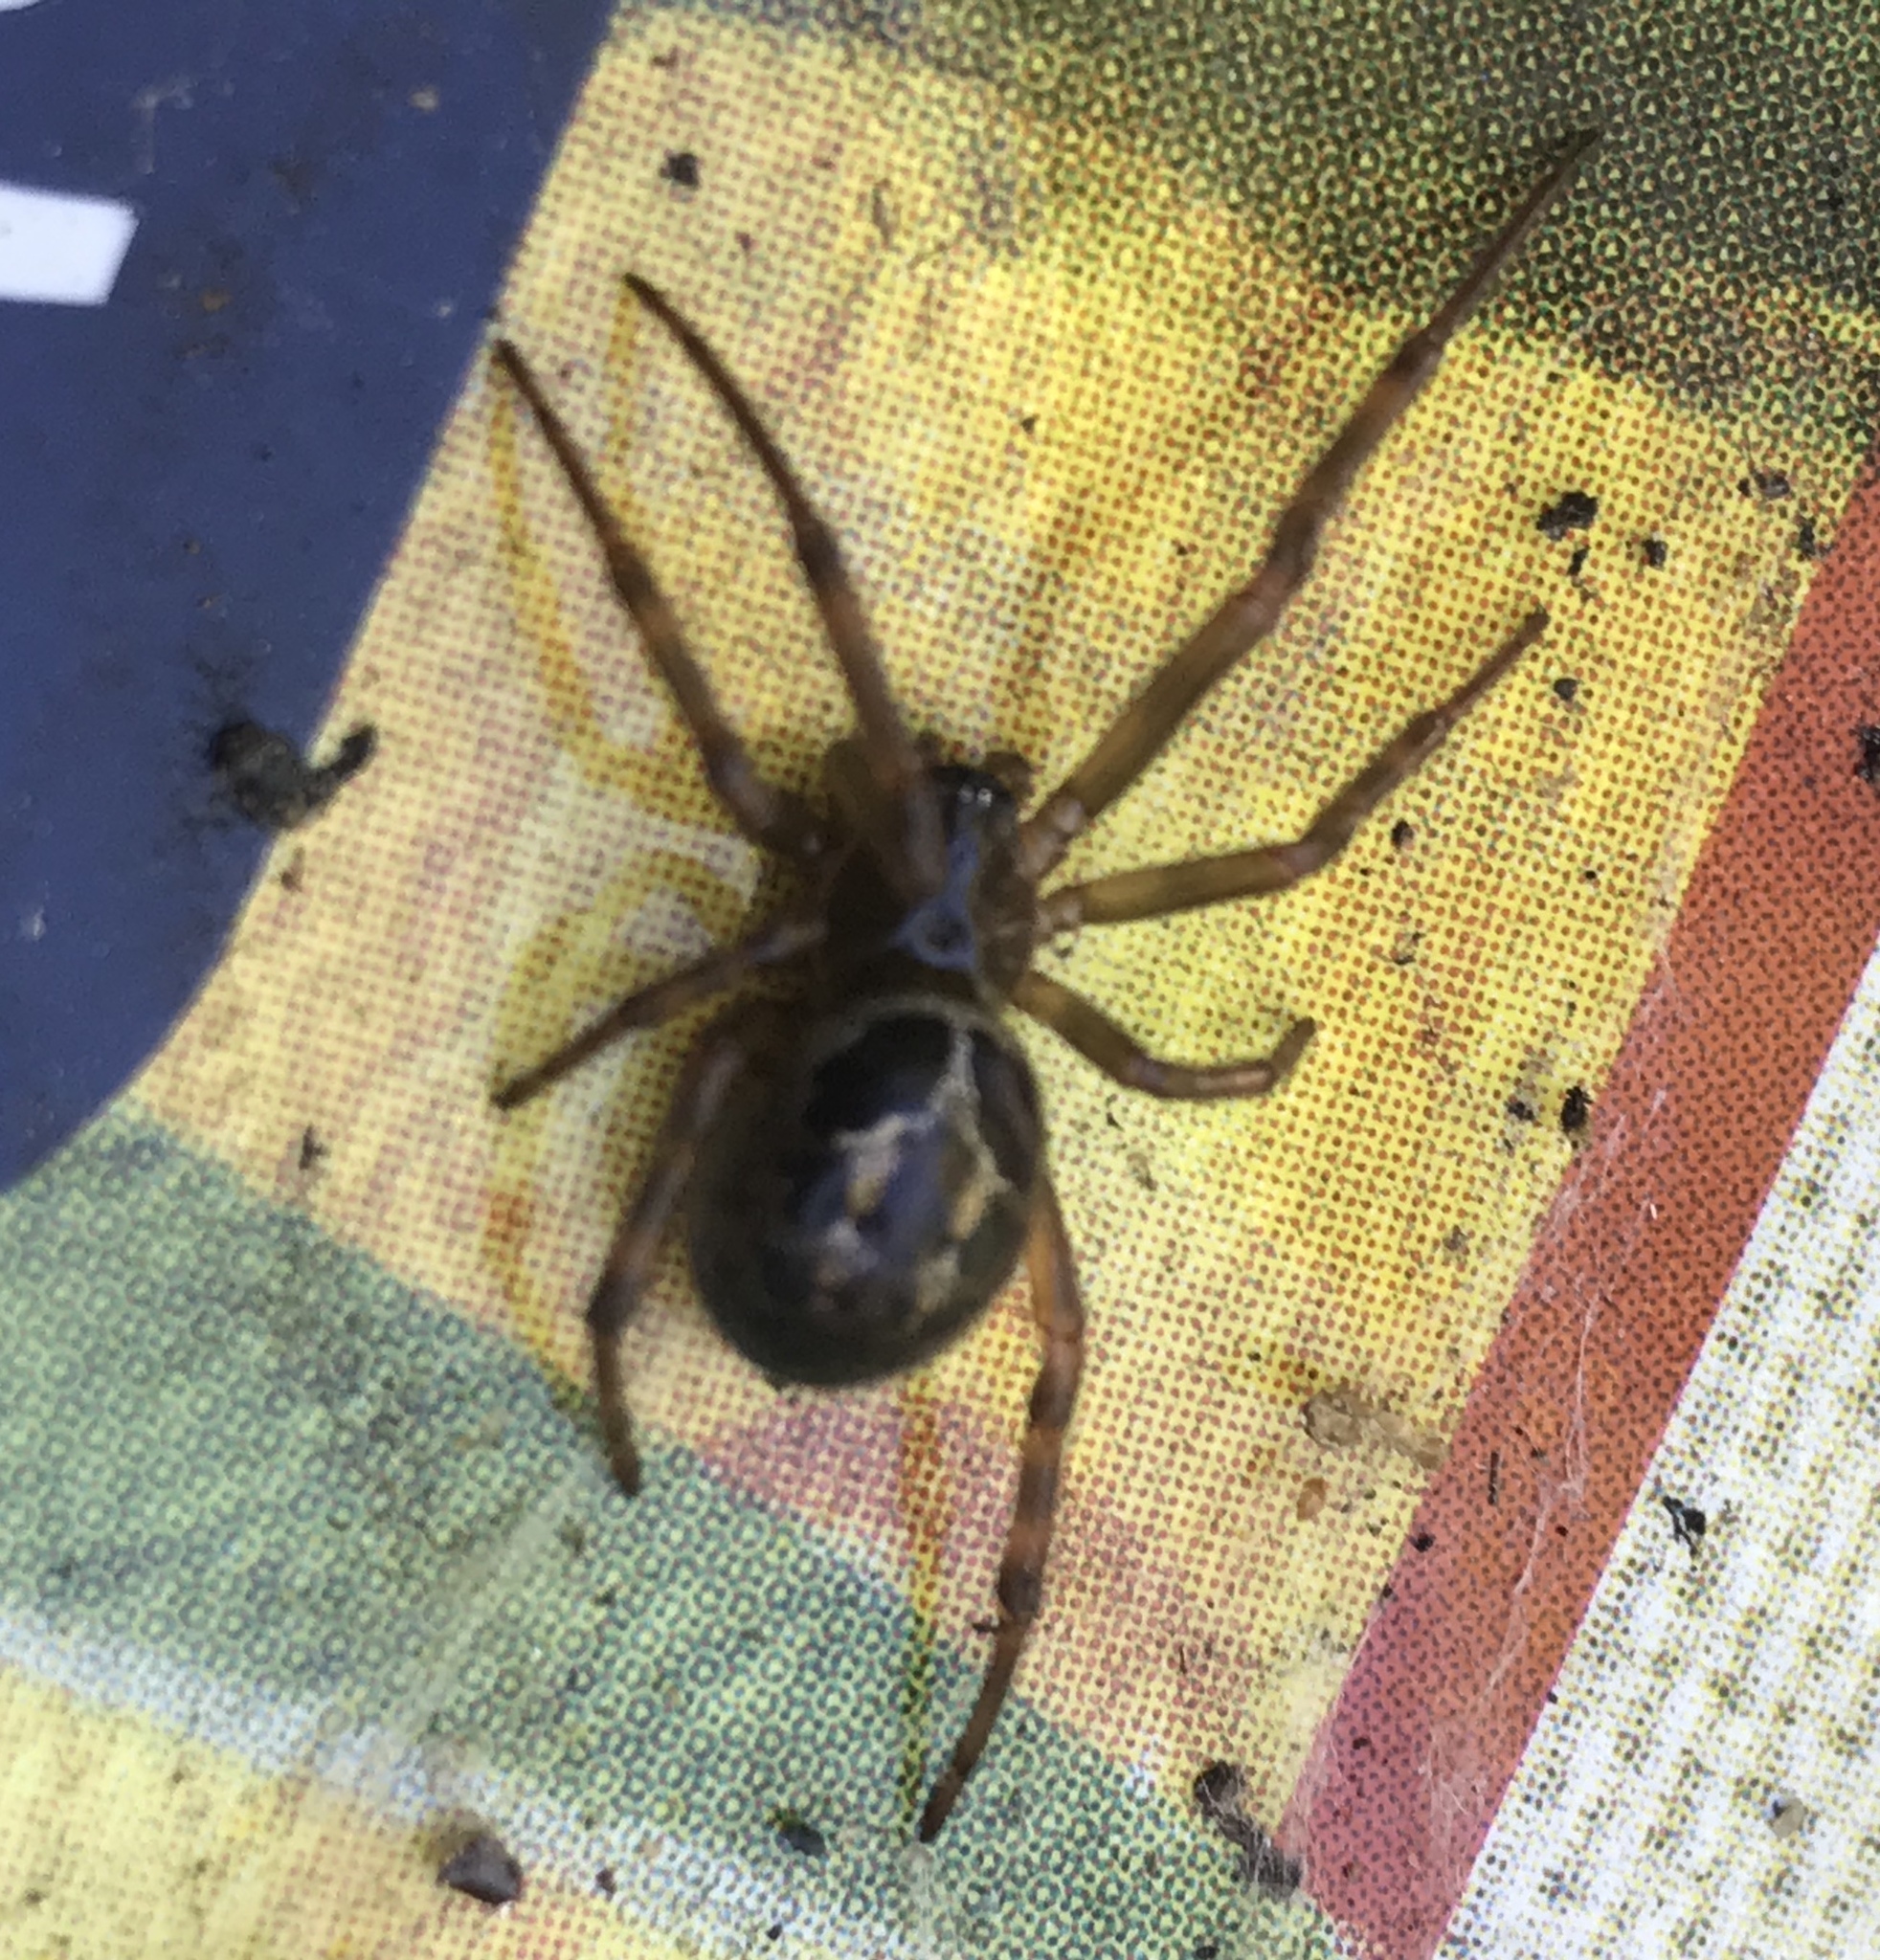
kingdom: Animalia
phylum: Arthropoda
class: Arachnida
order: Araneae
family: Theridiidae
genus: Steatoda
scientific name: Steatoda nobilis
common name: Cobweb weaver
